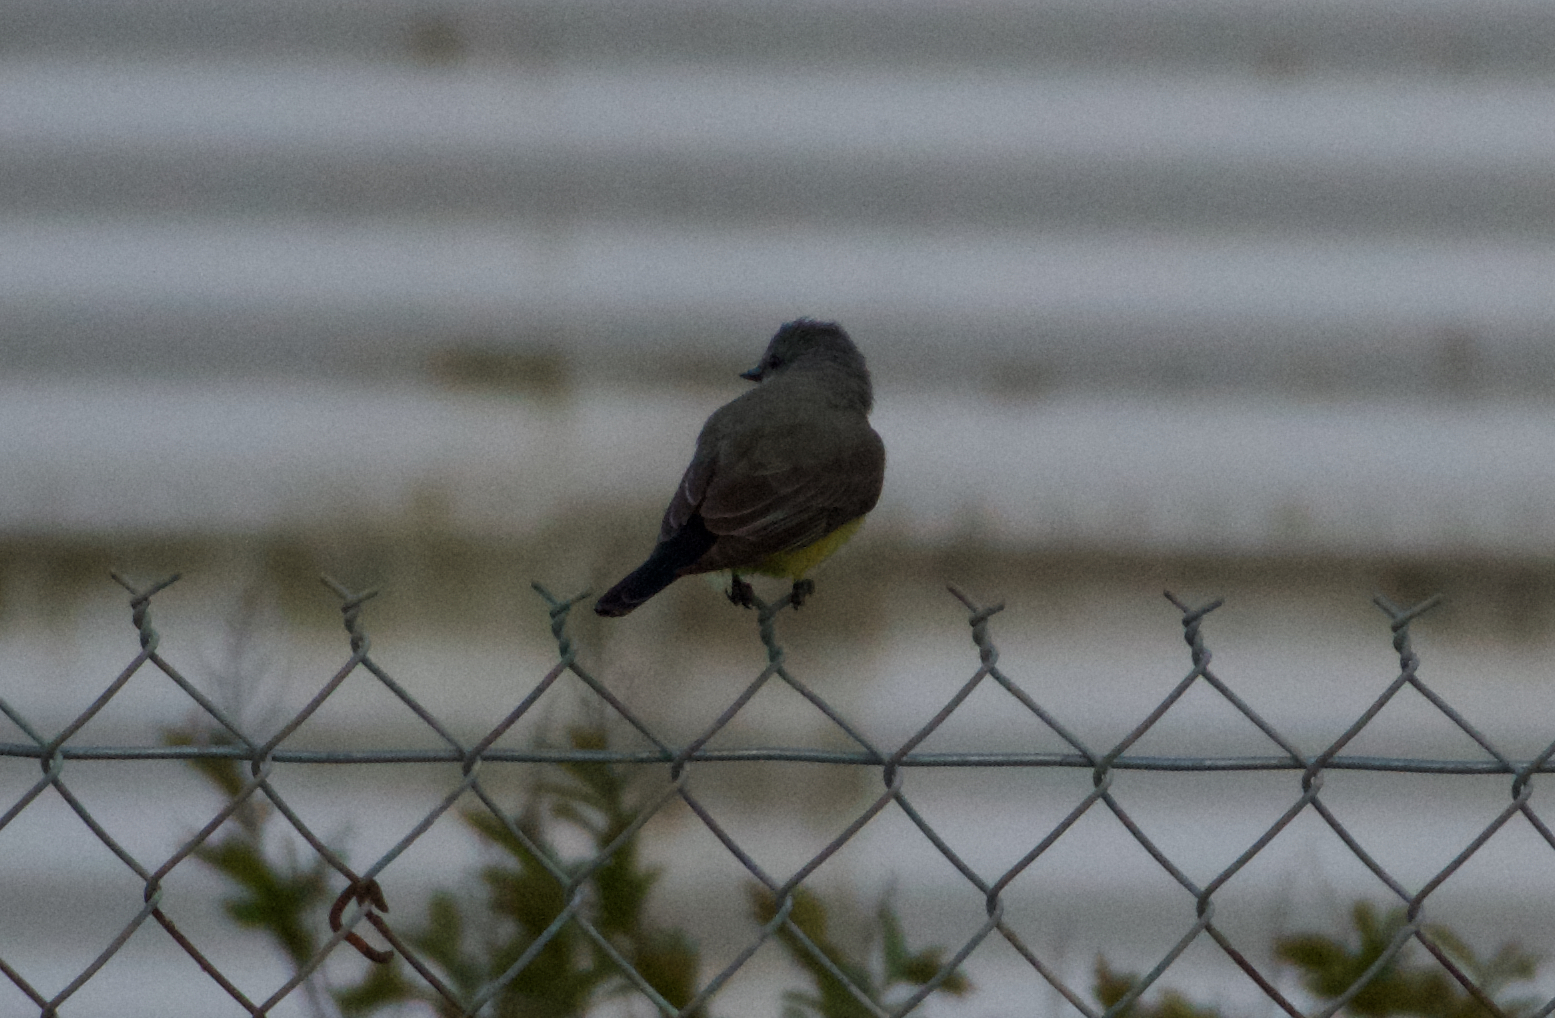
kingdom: Animalia
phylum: Chordata
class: Aves
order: Passeriformes
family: Tyrannidae
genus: Tyrannus
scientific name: Tyrannus verticalis
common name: Western kingbird
